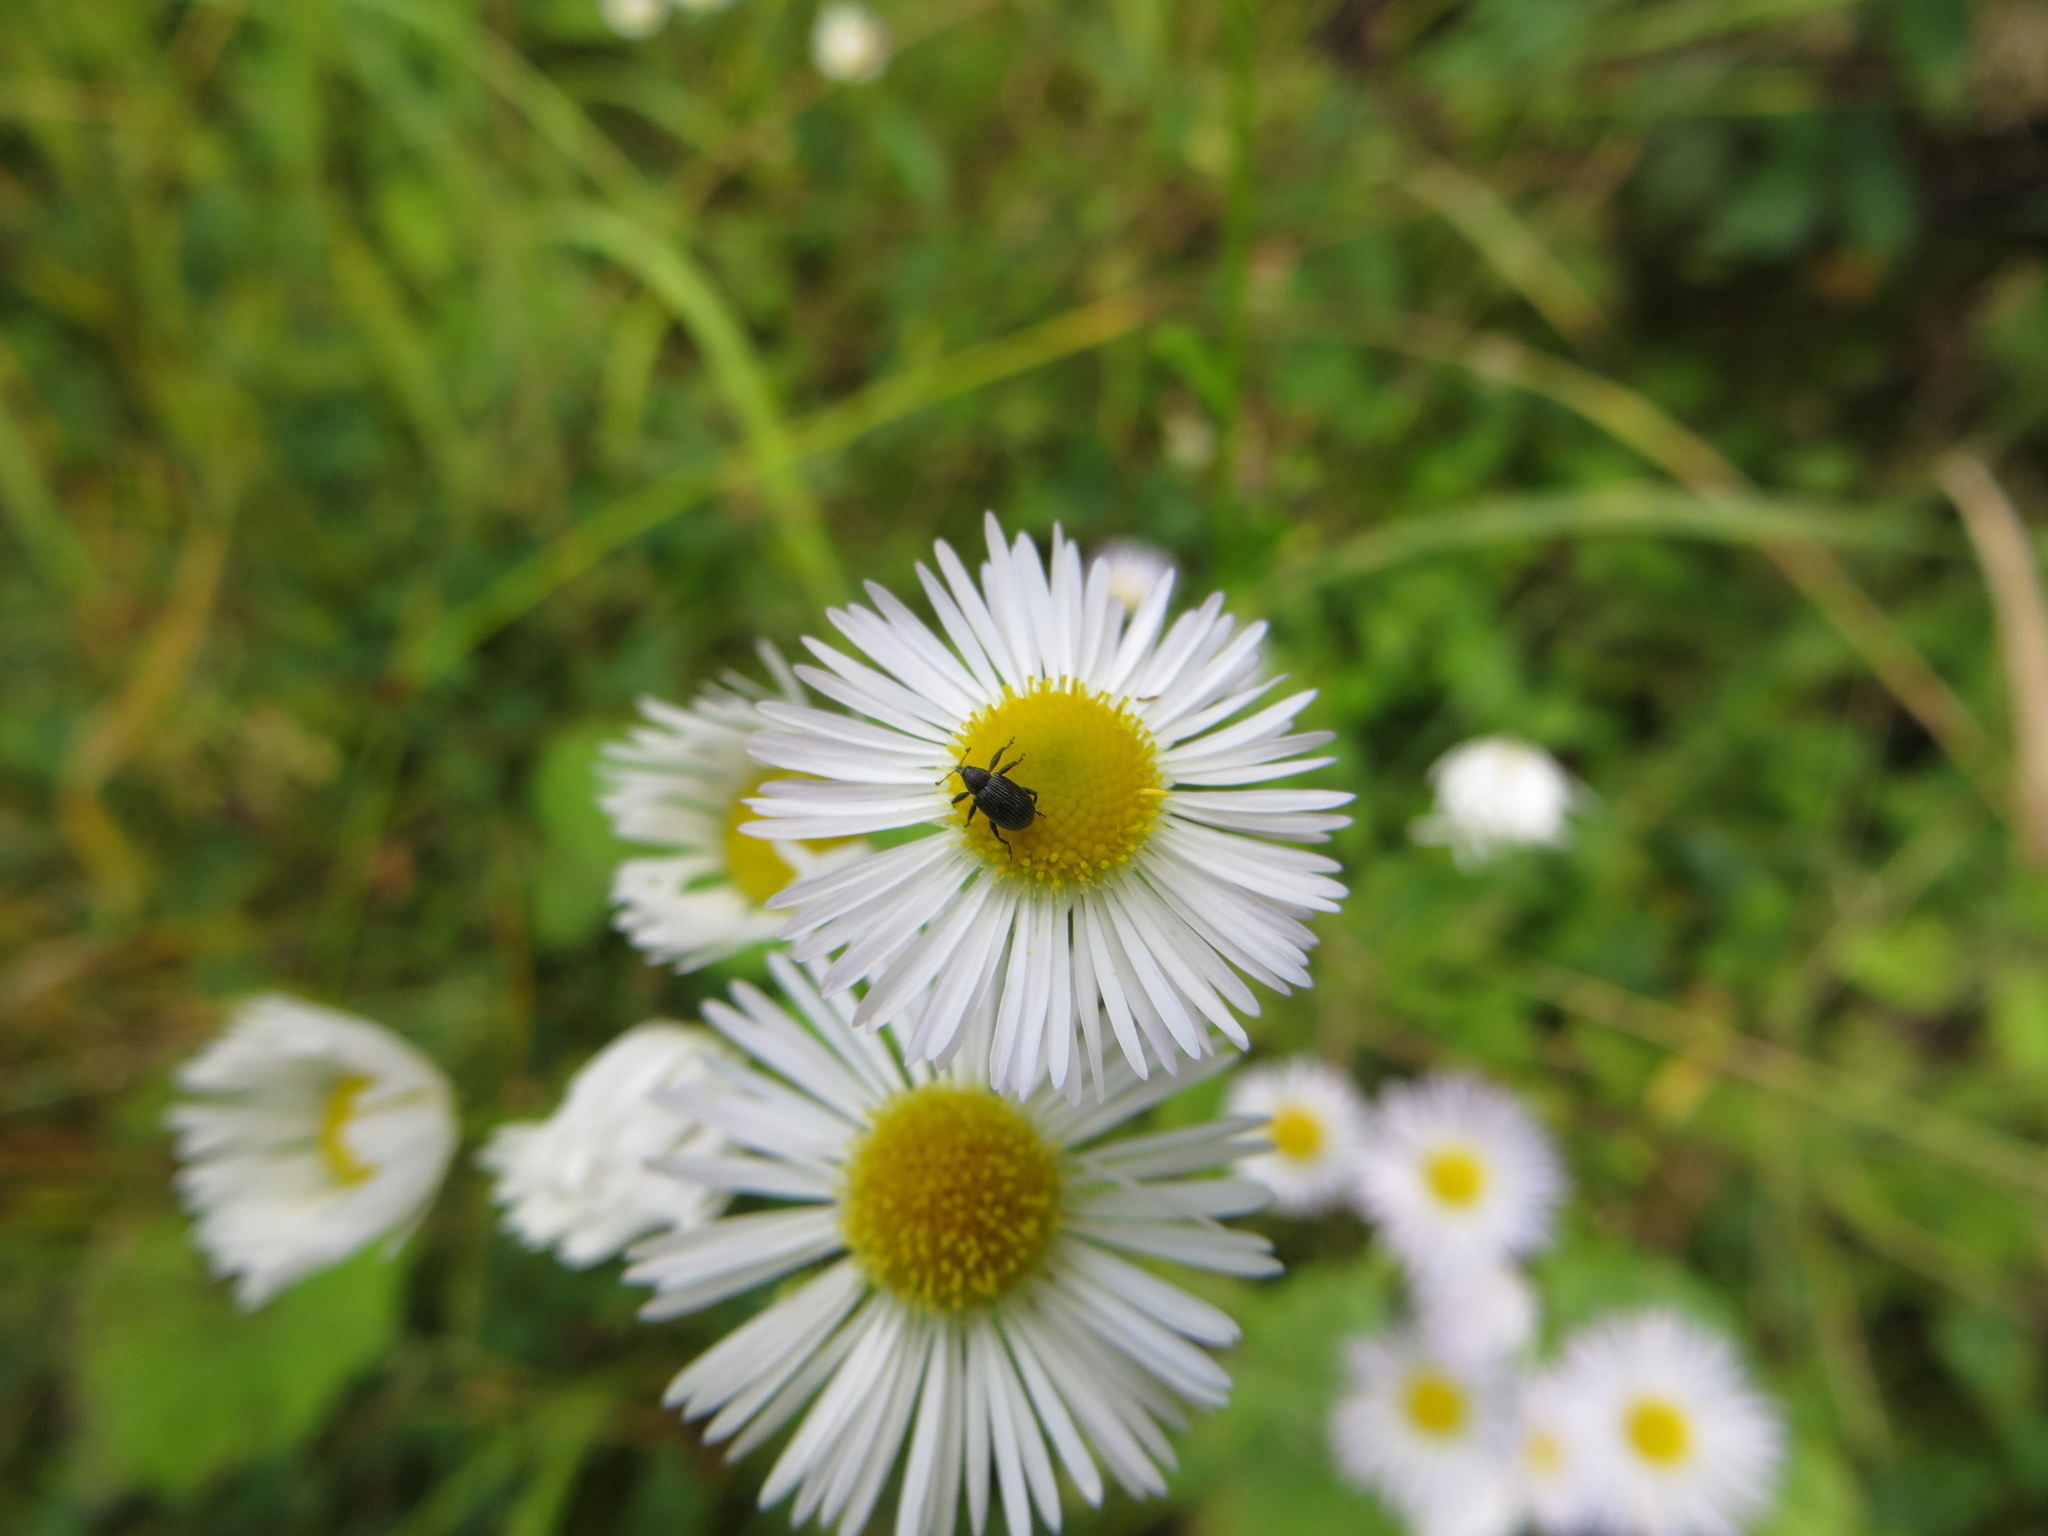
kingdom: Animalia
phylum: Arthropoda
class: Insecta
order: Coleoptera
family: Curculionidae
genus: Anthonomus
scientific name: Anthonomus rubi
